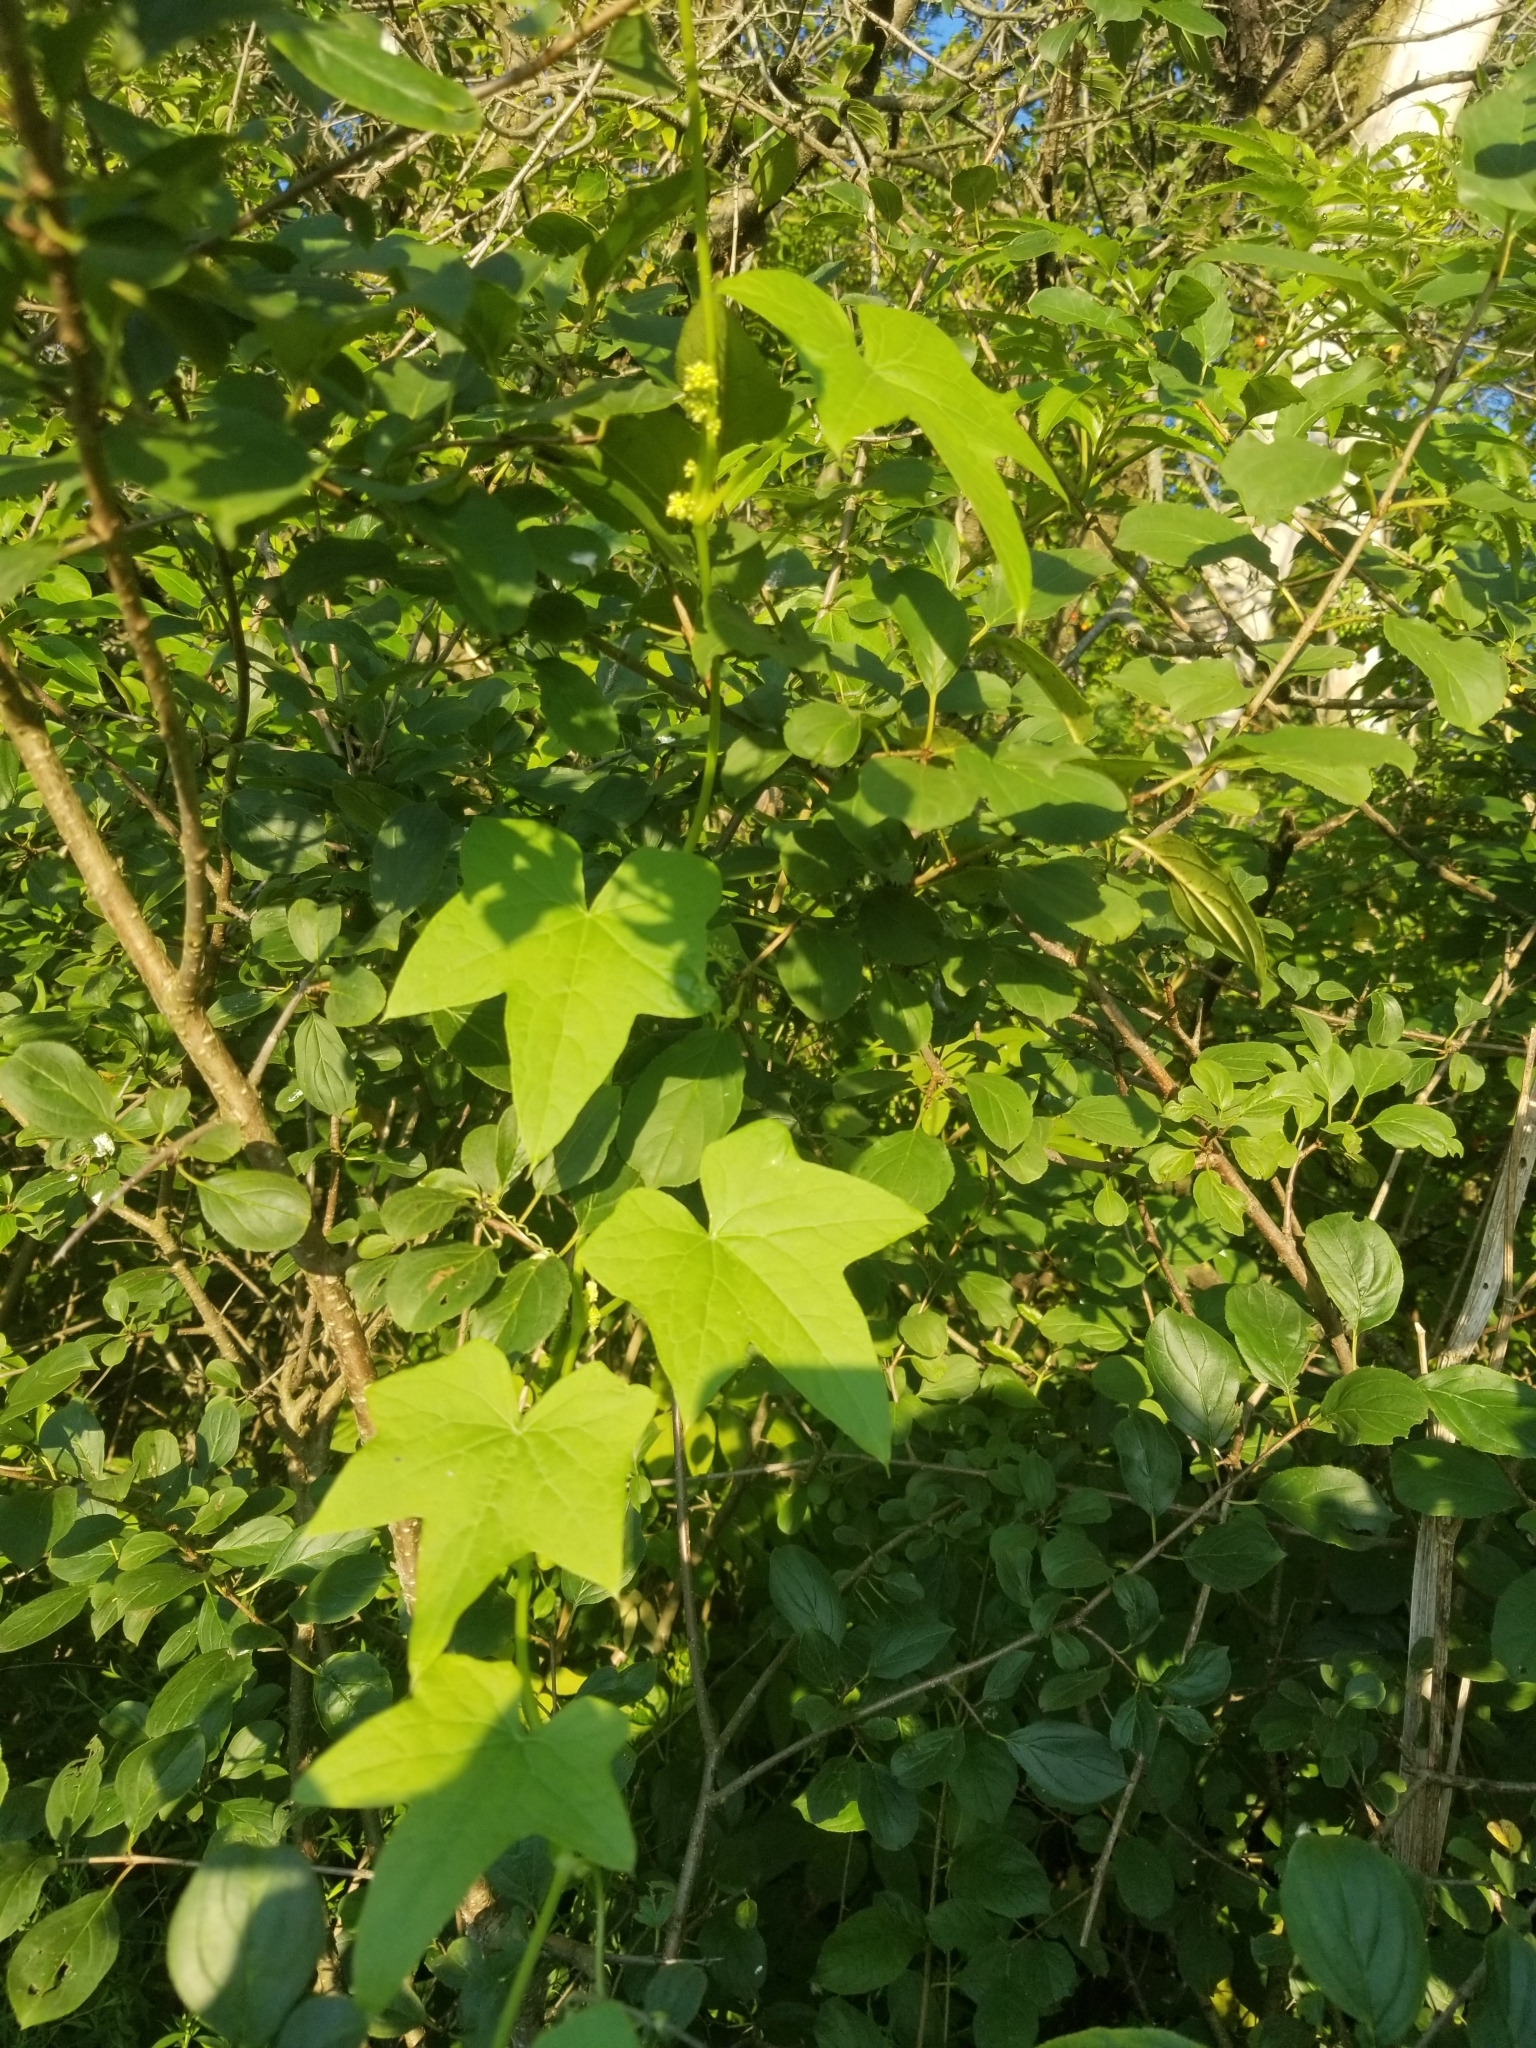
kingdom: Plantae
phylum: Tracheophyta
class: Magnoliopsida
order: Cucurbitales
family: Cucurbitaceae
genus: Echinocystis
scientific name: Echinocystis lobata
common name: Wild cucumber
